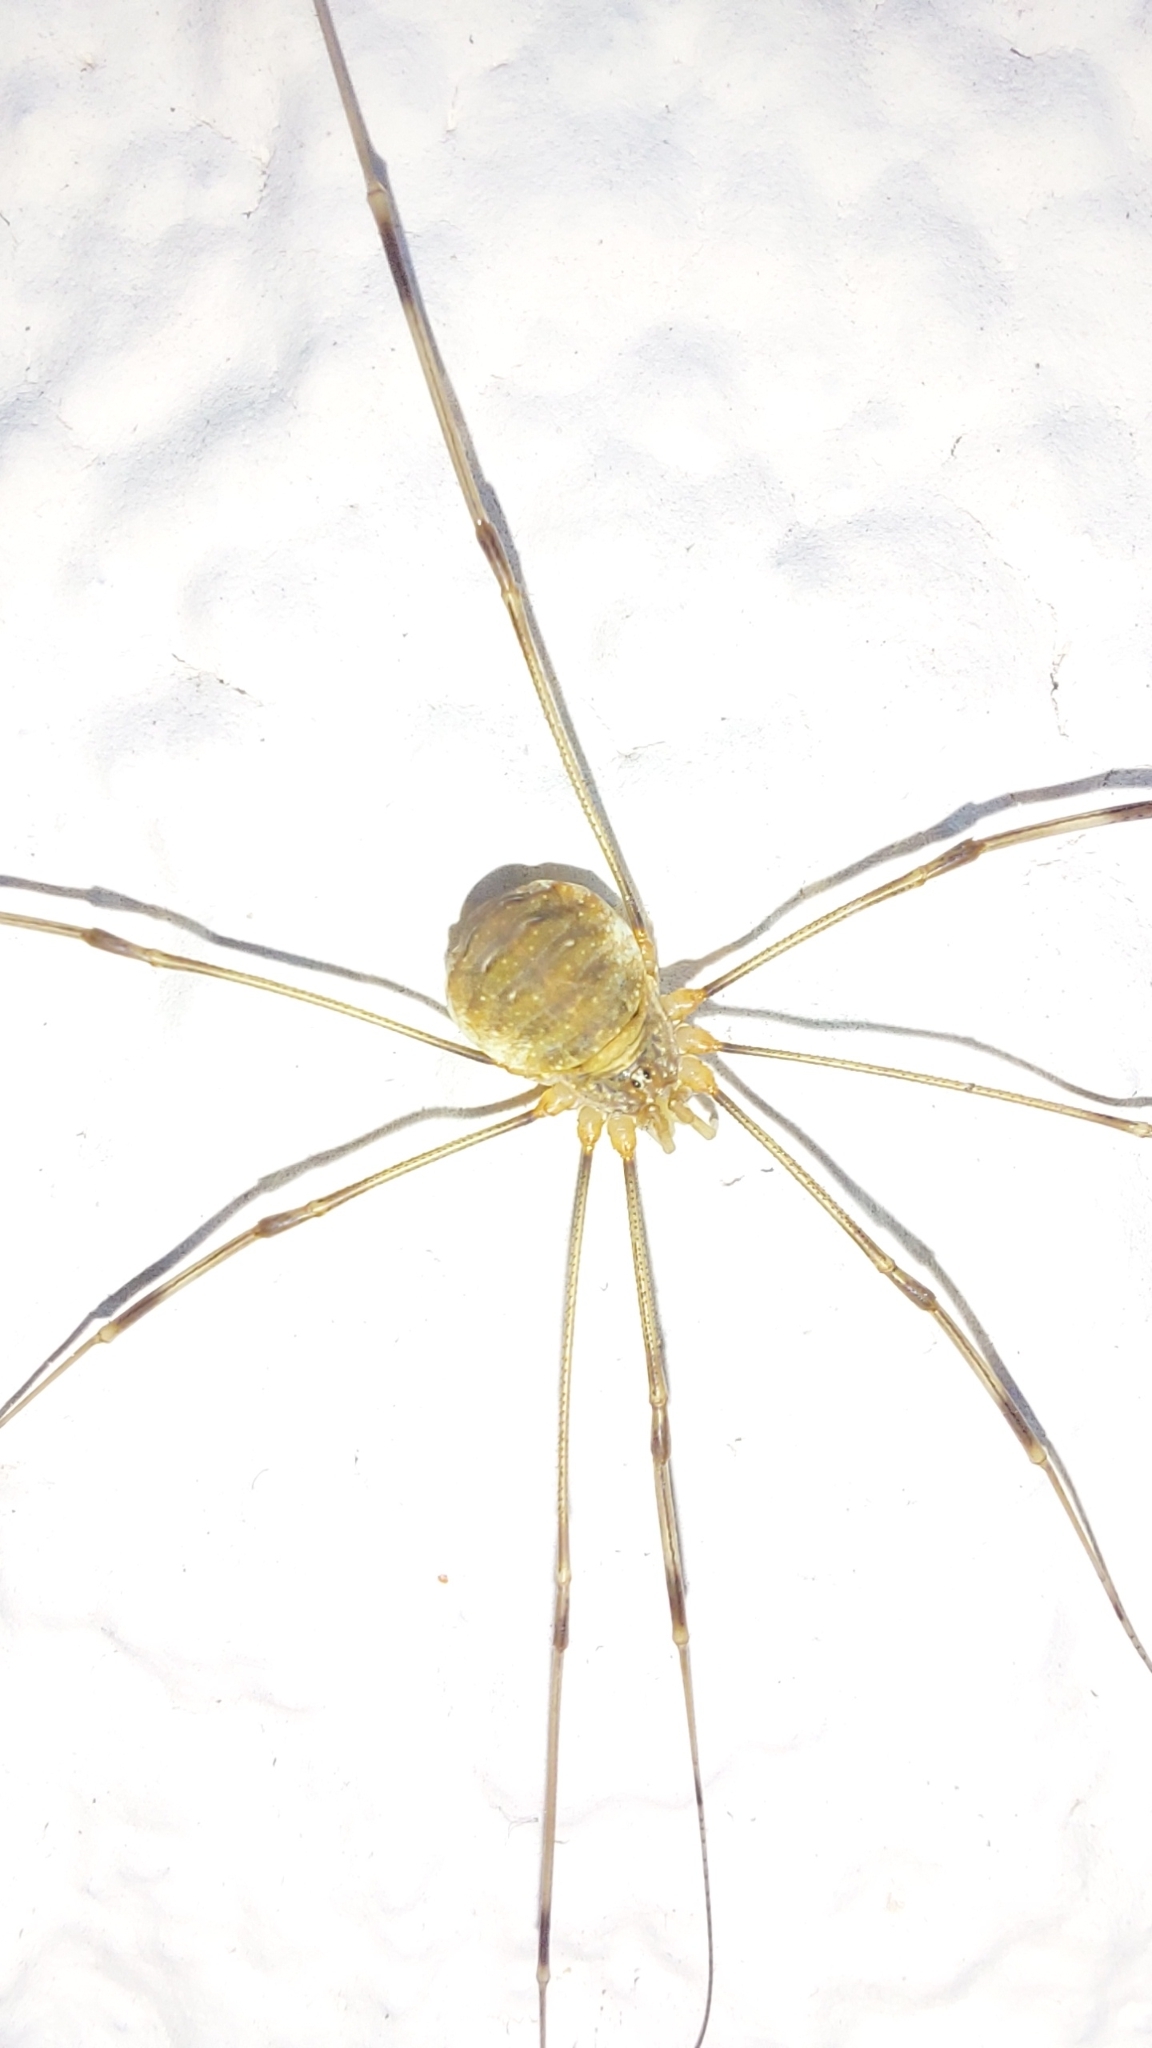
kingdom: Animalia
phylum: Arthropoda
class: Arachnida
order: Opiliones
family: Phalangiidae
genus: Opilio
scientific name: Opilio canestrinii
